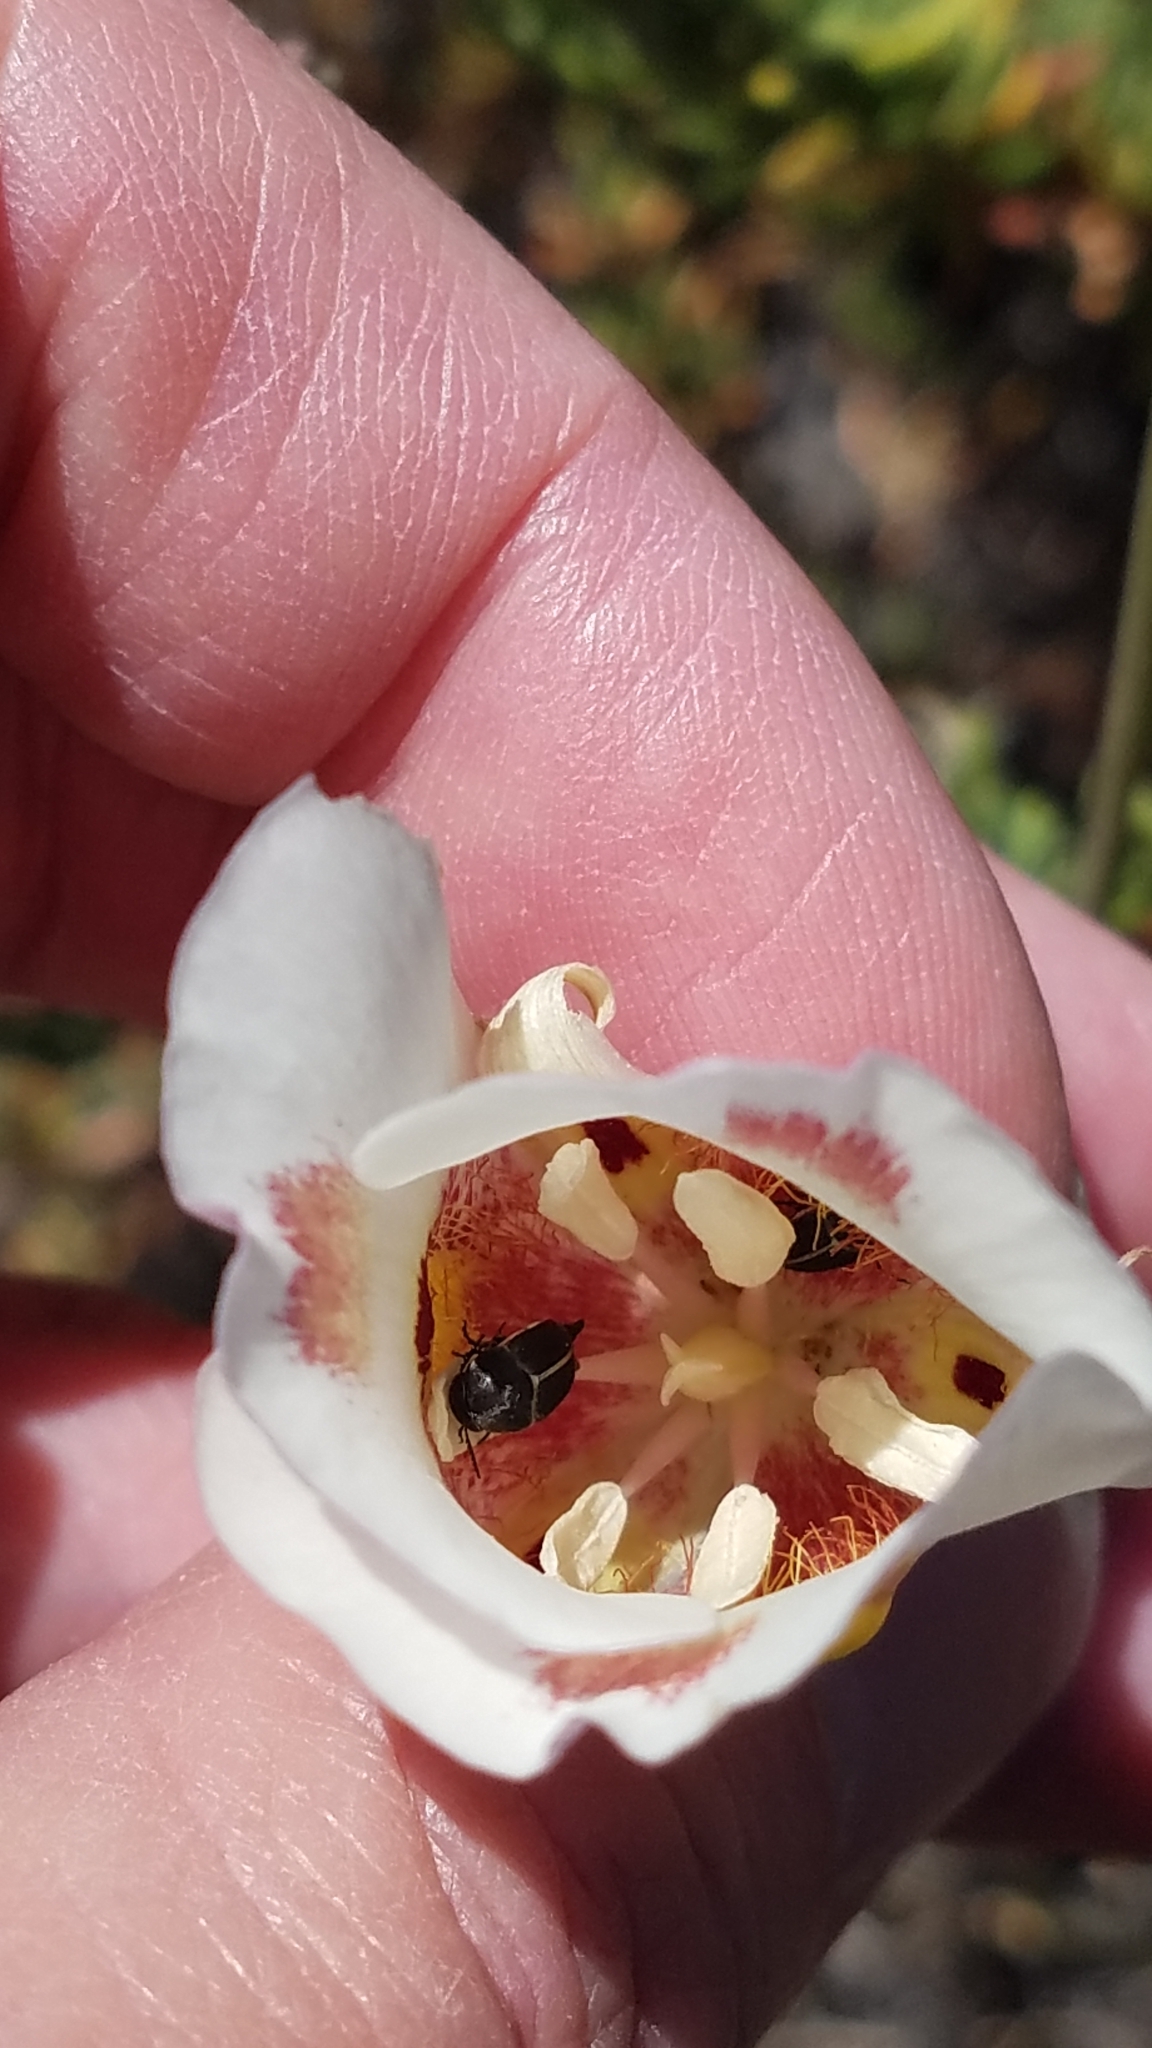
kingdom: Plantae
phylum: Tracheophyta
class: Liliopsida
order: Liliales
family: Liliaceae
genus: Calochortus
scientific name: Calochortus venustus
